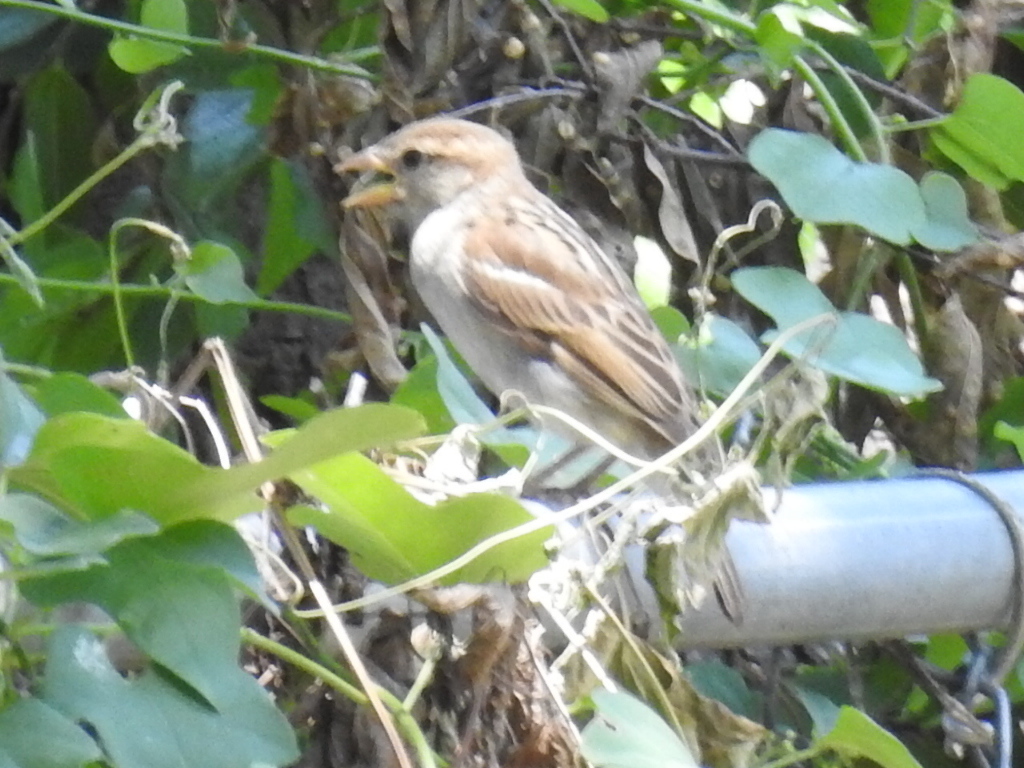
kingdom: Animalia
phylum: Chordata
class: Aves
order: Passeriformes
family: Passeridae
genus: Passer
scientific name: Passer domesticus
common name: House sparrow
